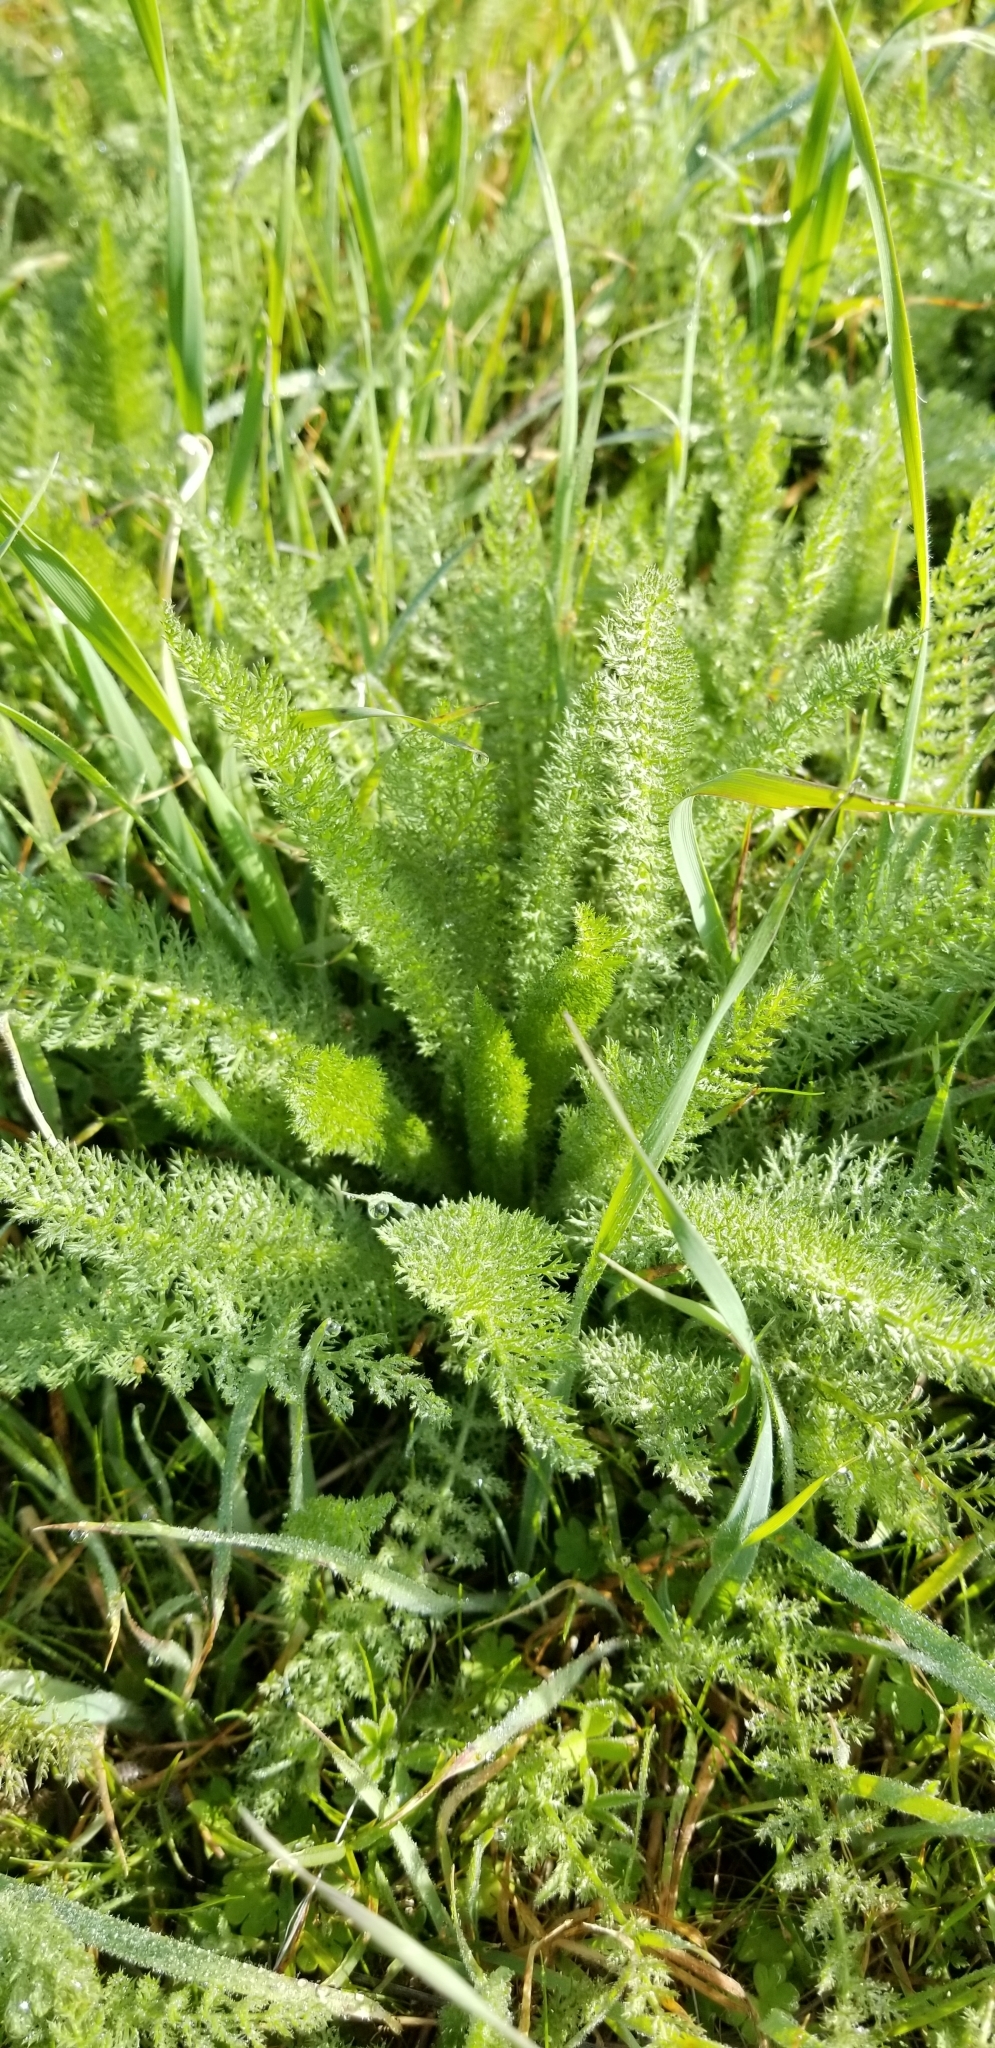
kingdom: Plantae
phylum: Tracheophyta
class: Magnoliopsida
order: Asterales
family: Asteraceae
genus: Achillea
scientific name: Achillea millefolium
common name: Yarrow
